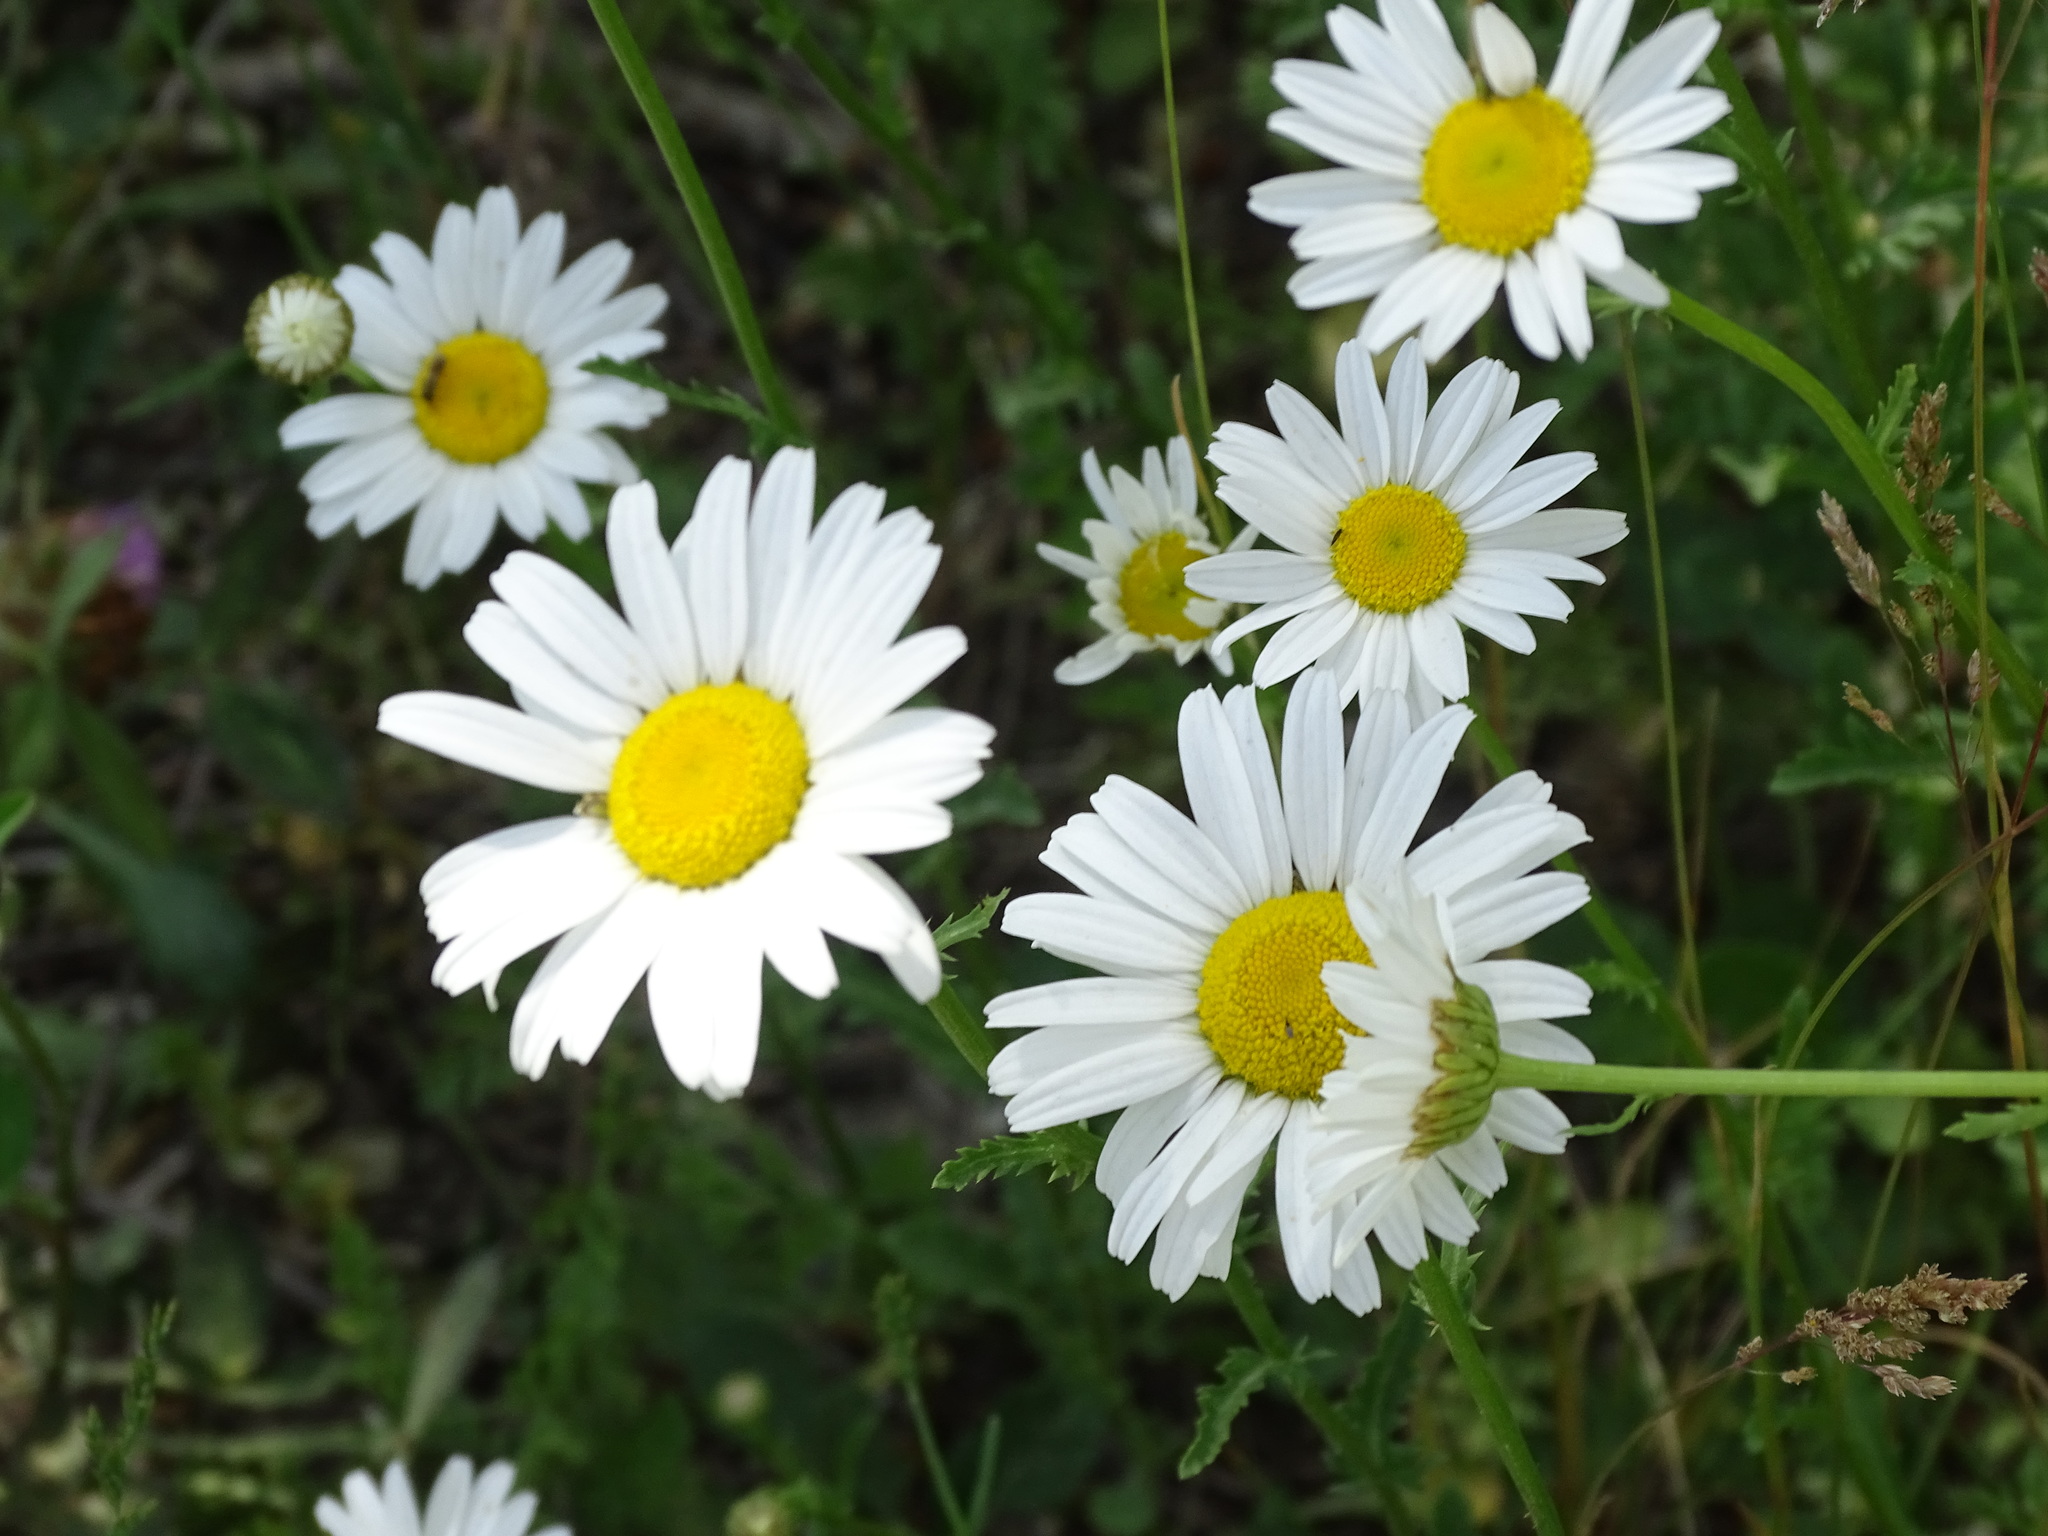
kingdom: Plantae
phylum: Tracheophyta
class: Magnoliopsida
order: Asterales
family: Asteraceae
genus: Leucanthemum
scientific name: Leucanthemum vulgare
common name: Oxeye daisy
